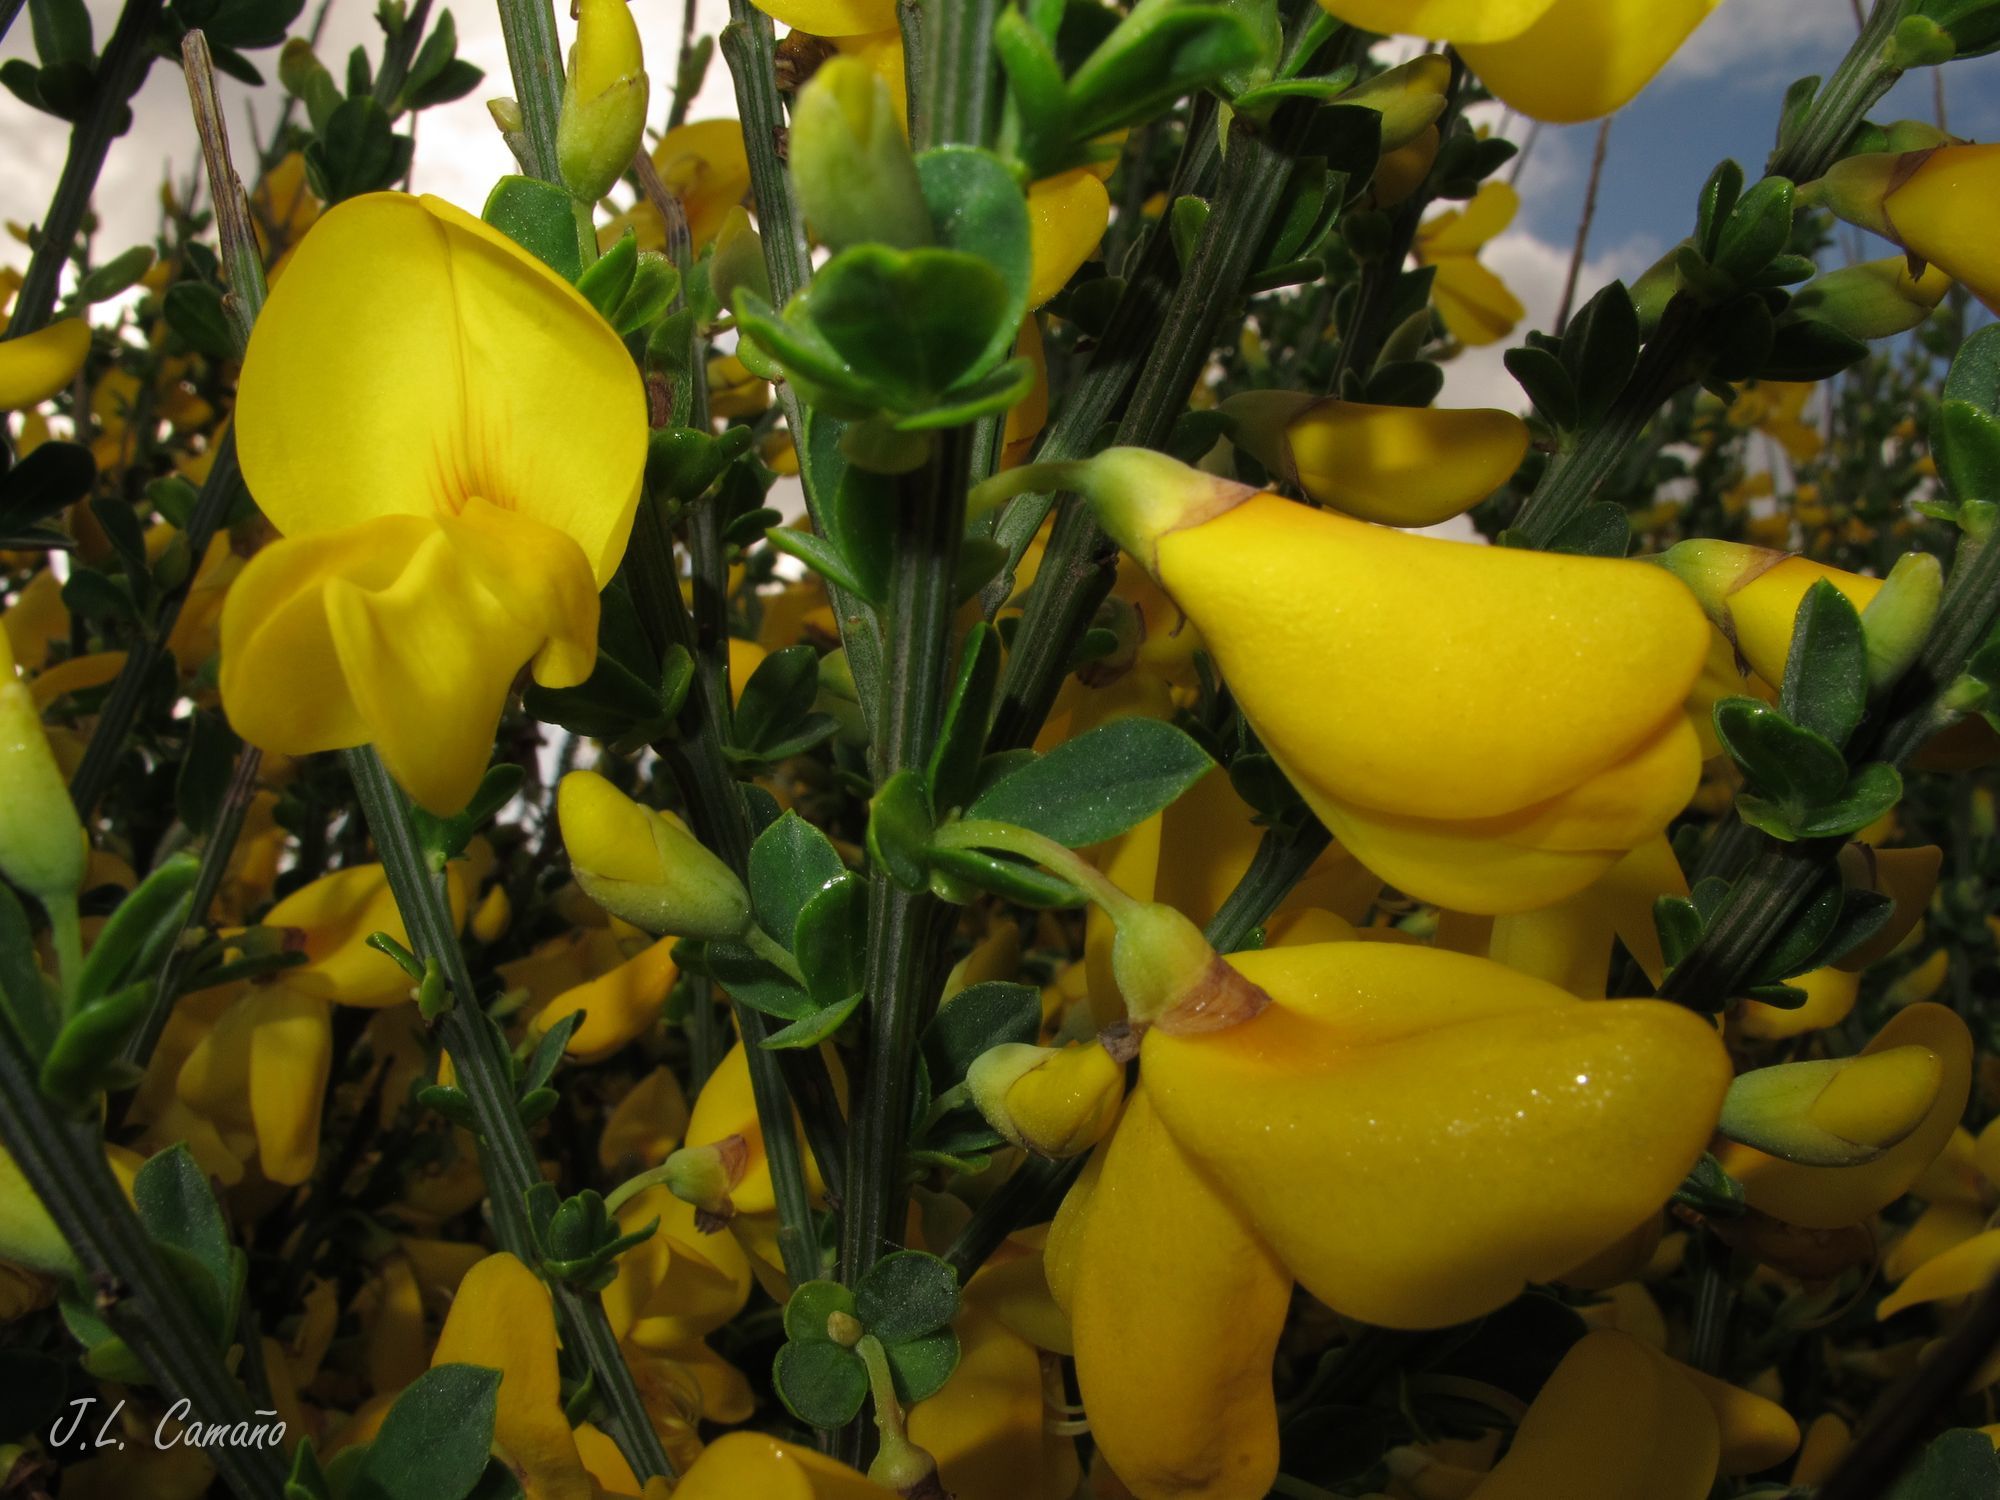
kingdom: Plantae
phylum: Tracheophyta
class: Magnoliopsida
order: Fabales
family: Fabaceae
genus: Cytisus
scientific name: Cytisus scoparius
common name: Scotch broom
